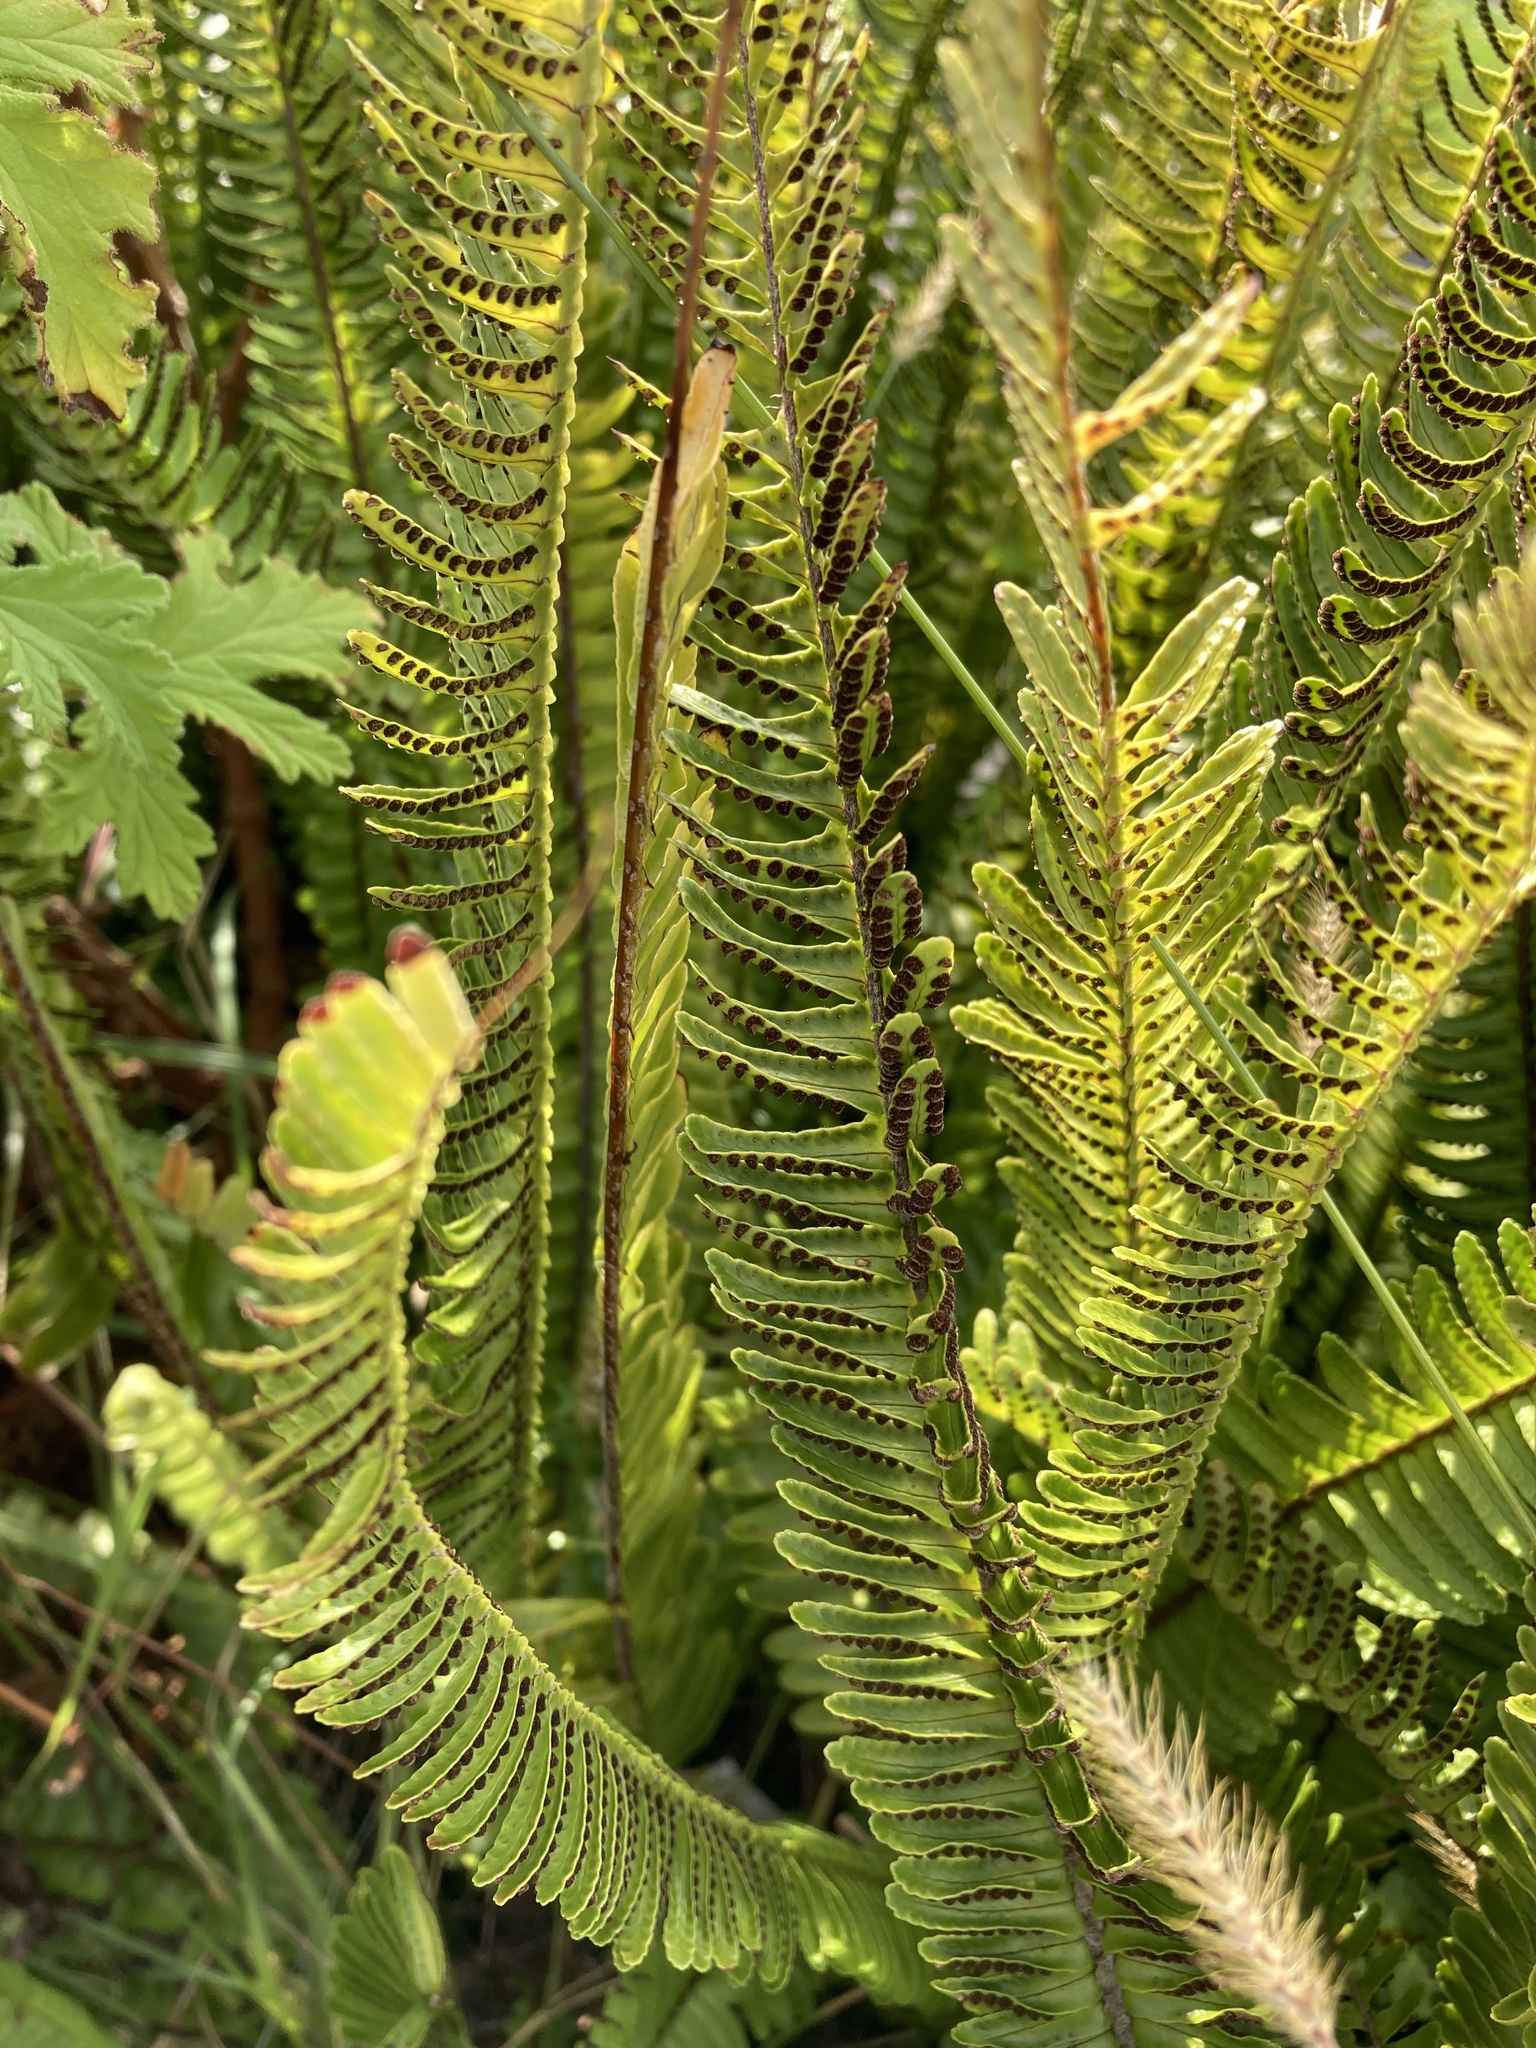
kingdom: Plantae
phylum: Tracheophyta
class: Polypodiopsida
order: Polypodiales
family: Nephrolepidaceae
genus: Nephrolepis
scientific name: Nephrolepis cordifolia
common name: Narrow swordfern
